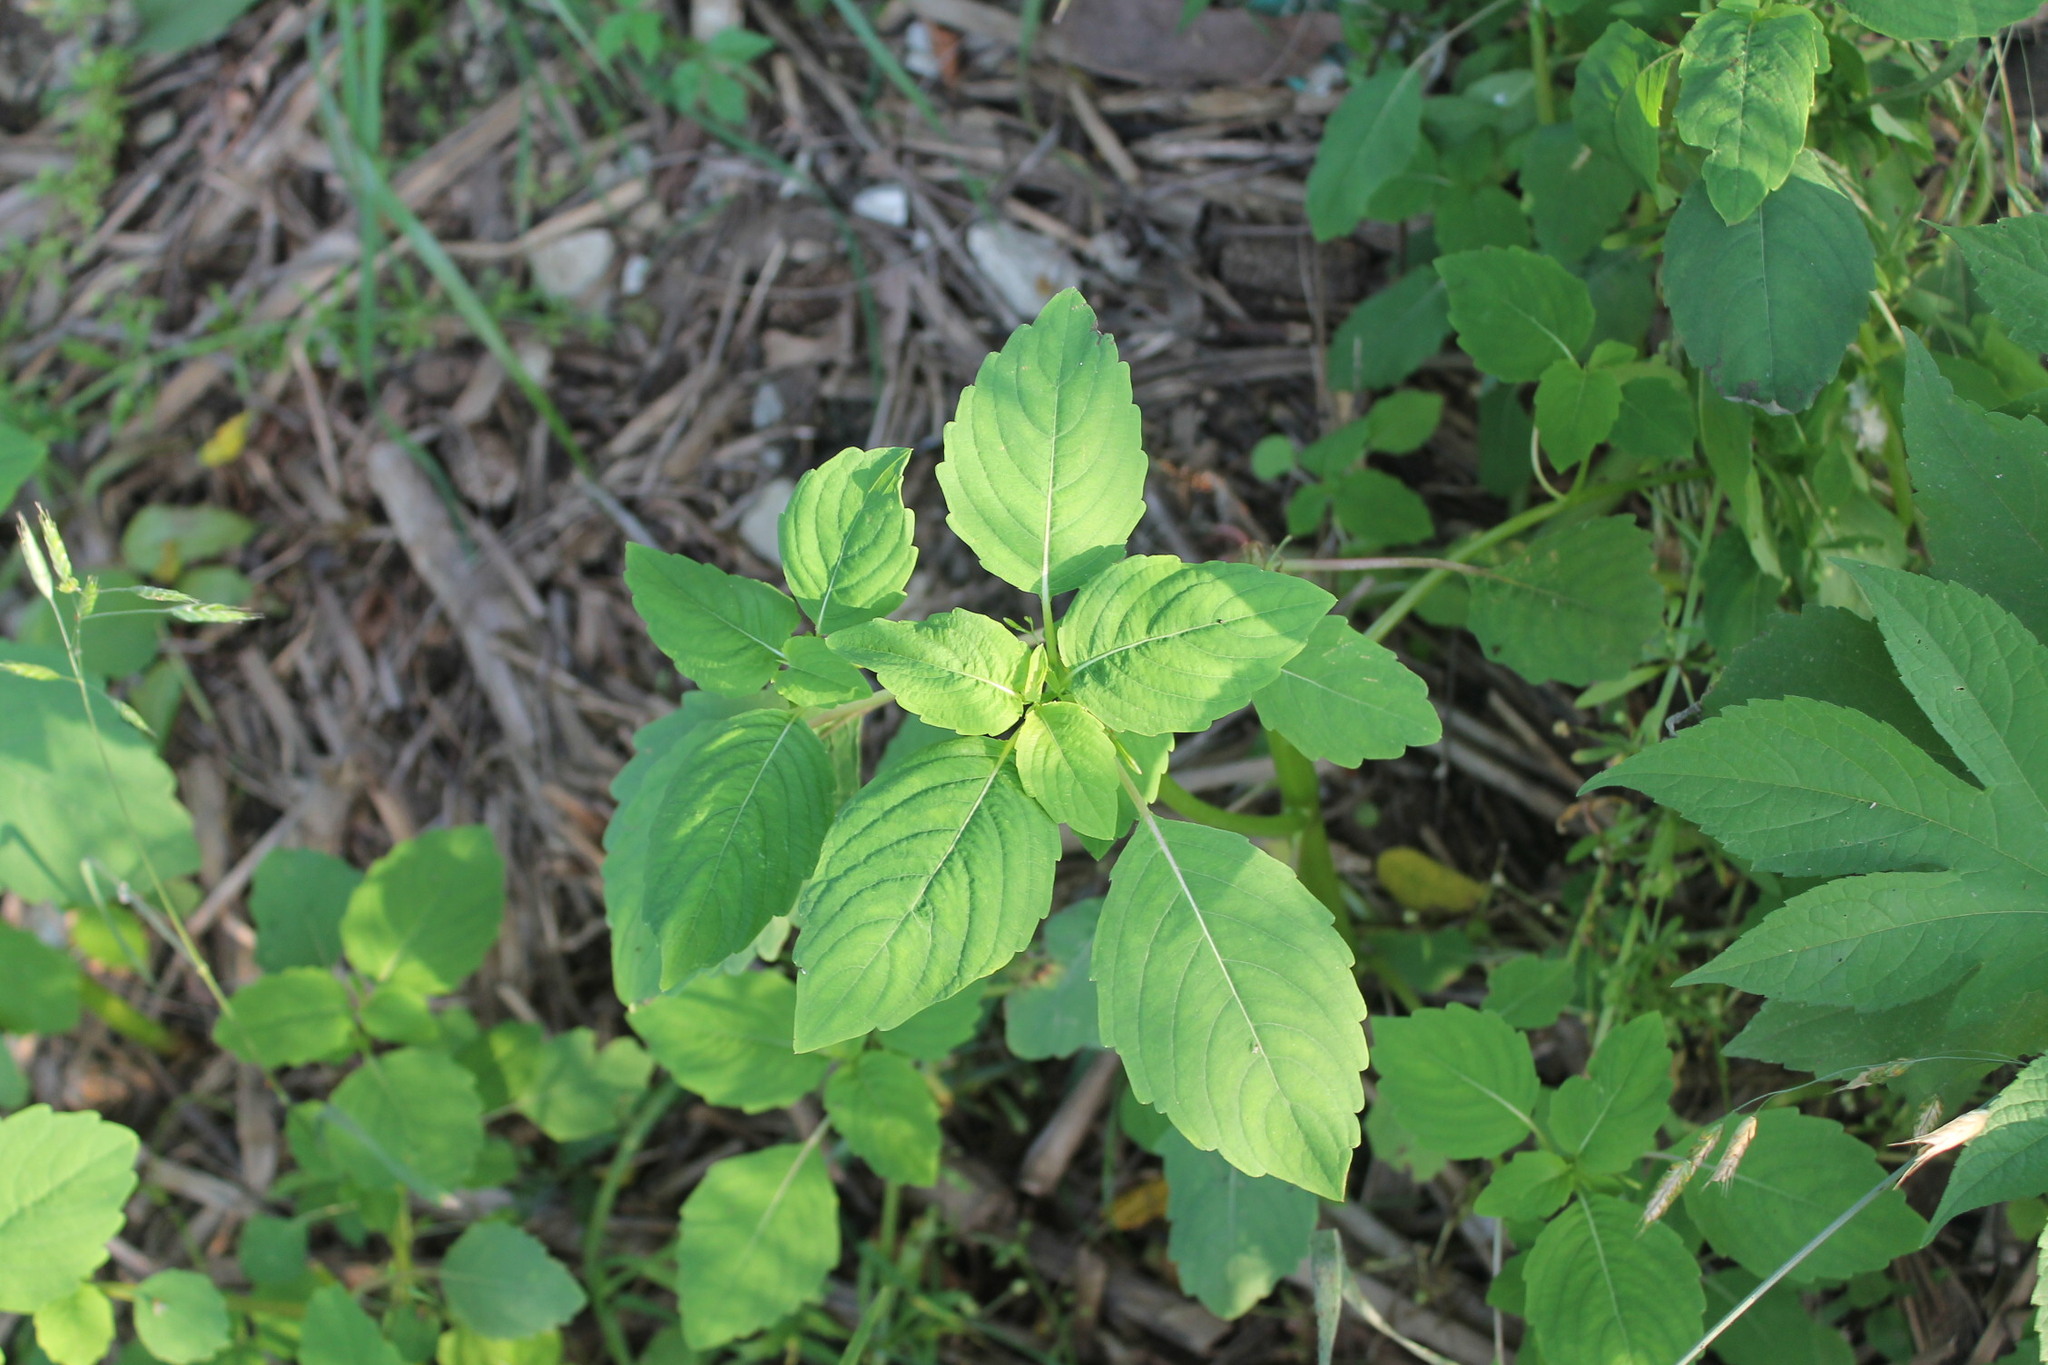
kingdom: Plantae
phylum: Tracheophyta
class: Magnoliopsida
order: Ericales
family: Balsaminaceae
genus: Impatiens
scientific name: Impatiens capensis
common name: Orange balsam
